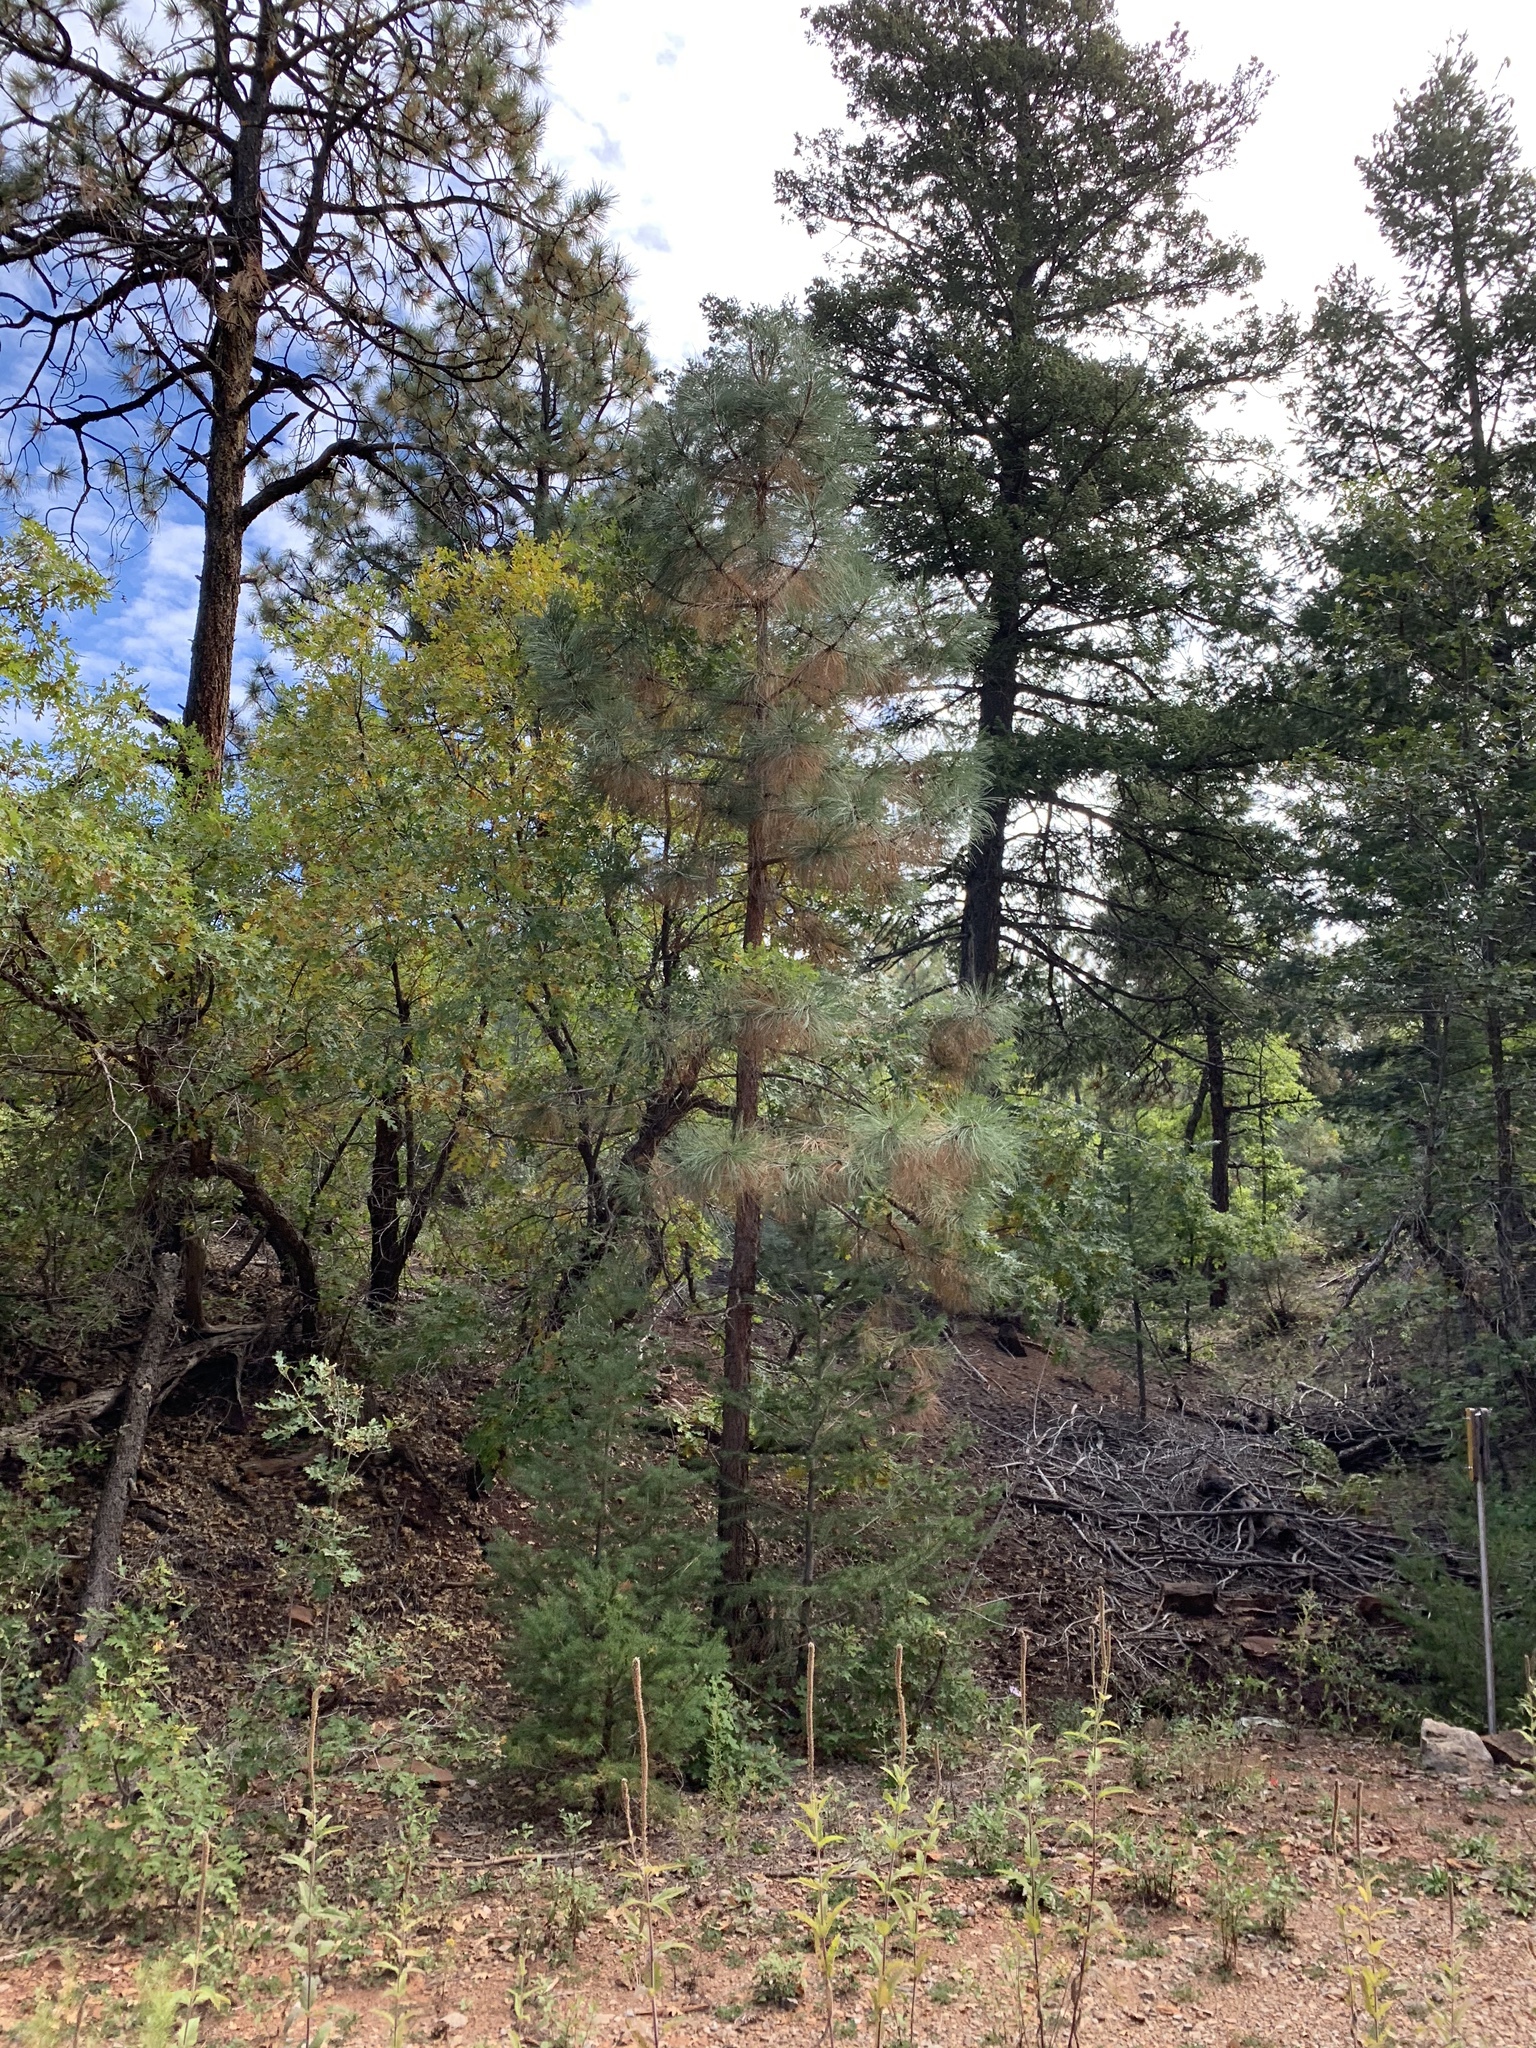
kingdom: Plantae
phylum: Tracheophyta
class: Pinopsida
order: Pinales
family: Pinaceae
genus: Pinus
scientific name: Pinus ponderosa
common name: Western yellow-pine
